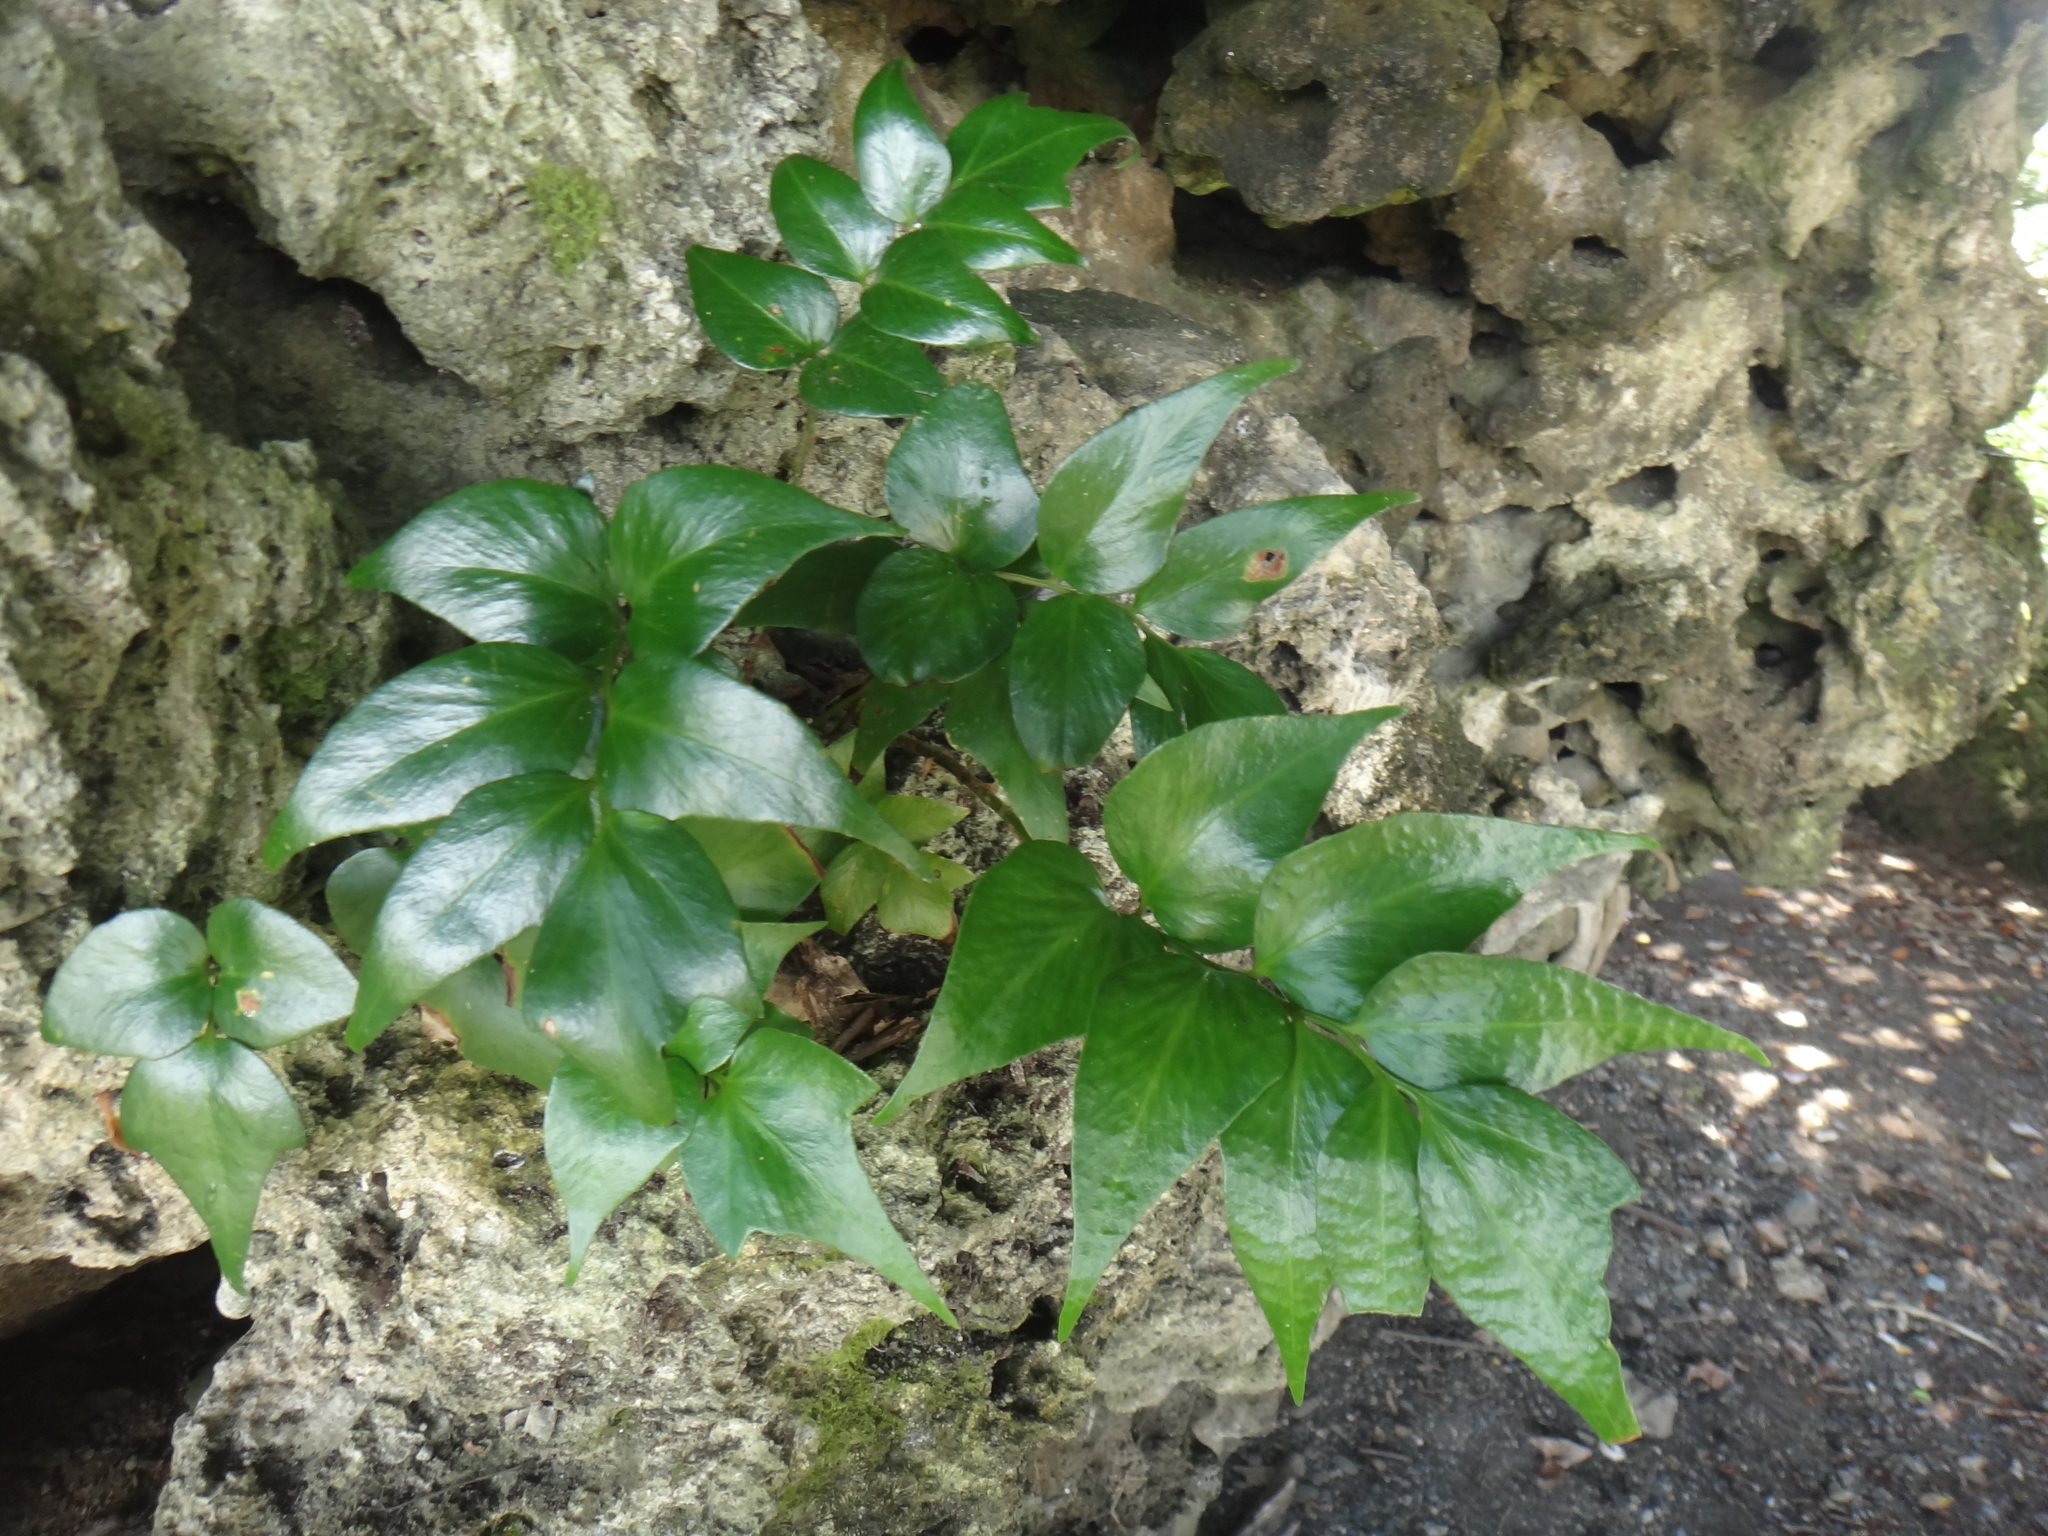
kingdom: Plantae
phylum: Tracheophyta
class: Polypodiopsida
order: Polypodiales
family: Dryopteridaceae
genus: Cyrtomium
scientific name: Cyrtomium falcatum
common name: House holly-fern
